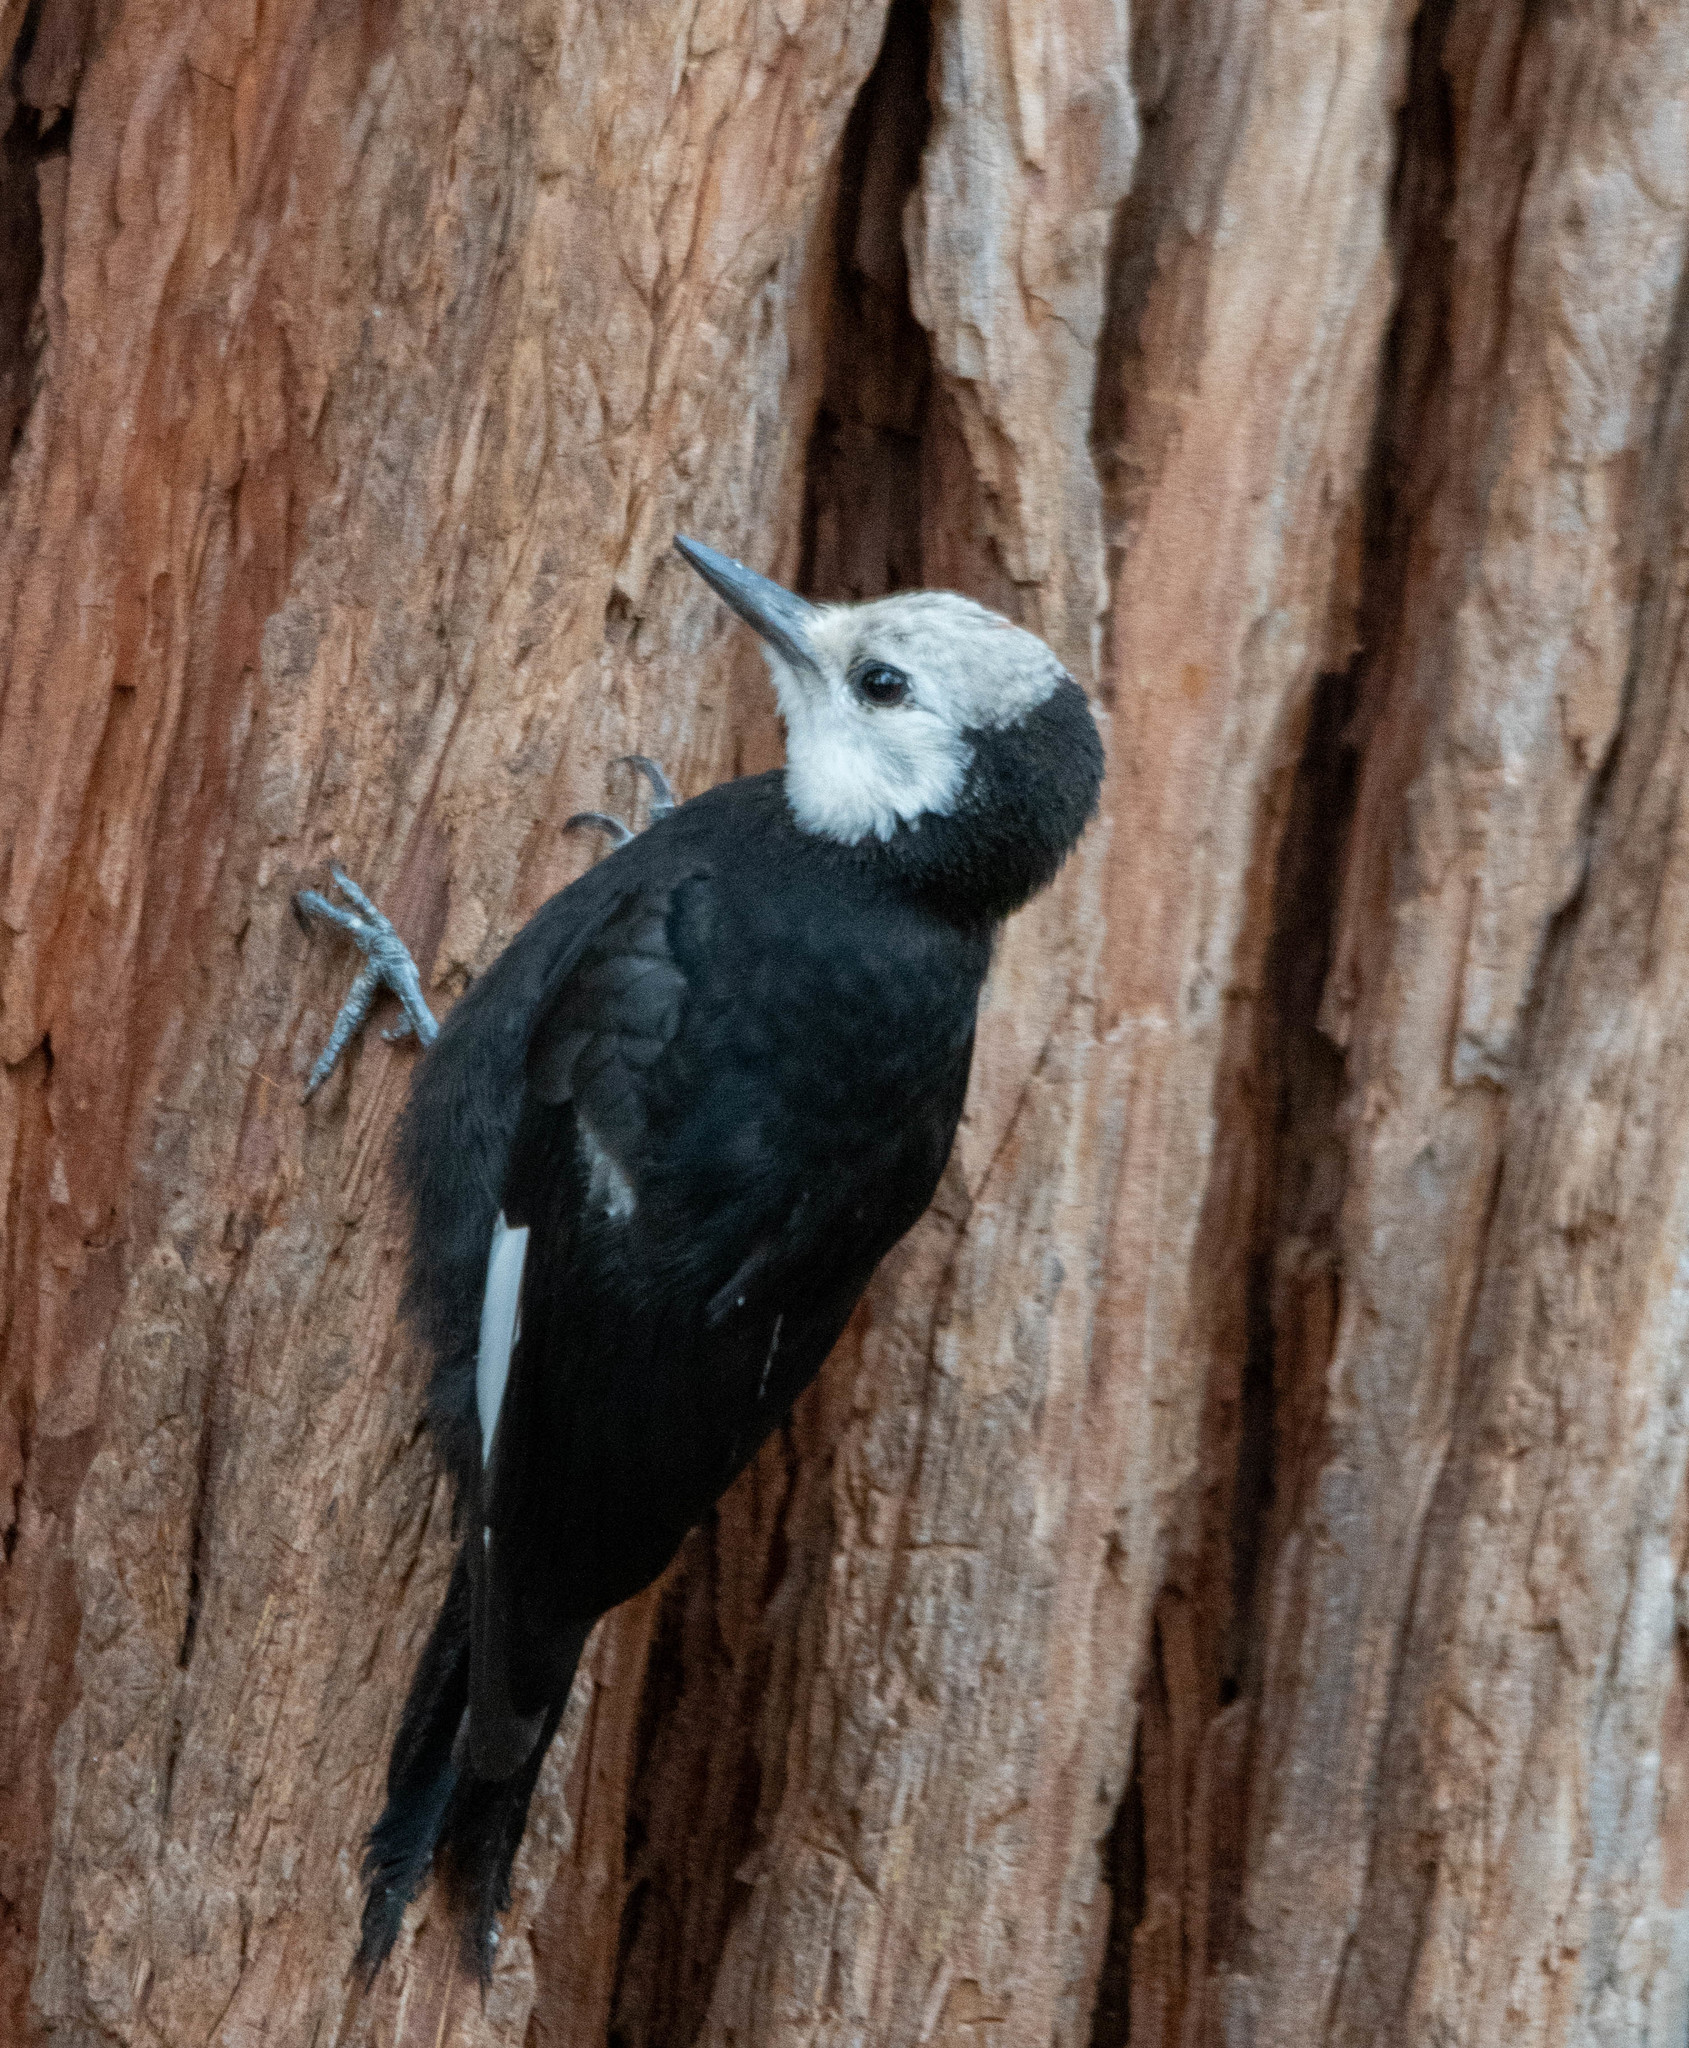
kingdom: Animalia
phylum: Chordata
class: Aves
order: Piciformes
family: Picidae
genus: Leuconotopicus
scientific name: Leuconotopicus albolarvatus
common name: White-headed woodpecker
